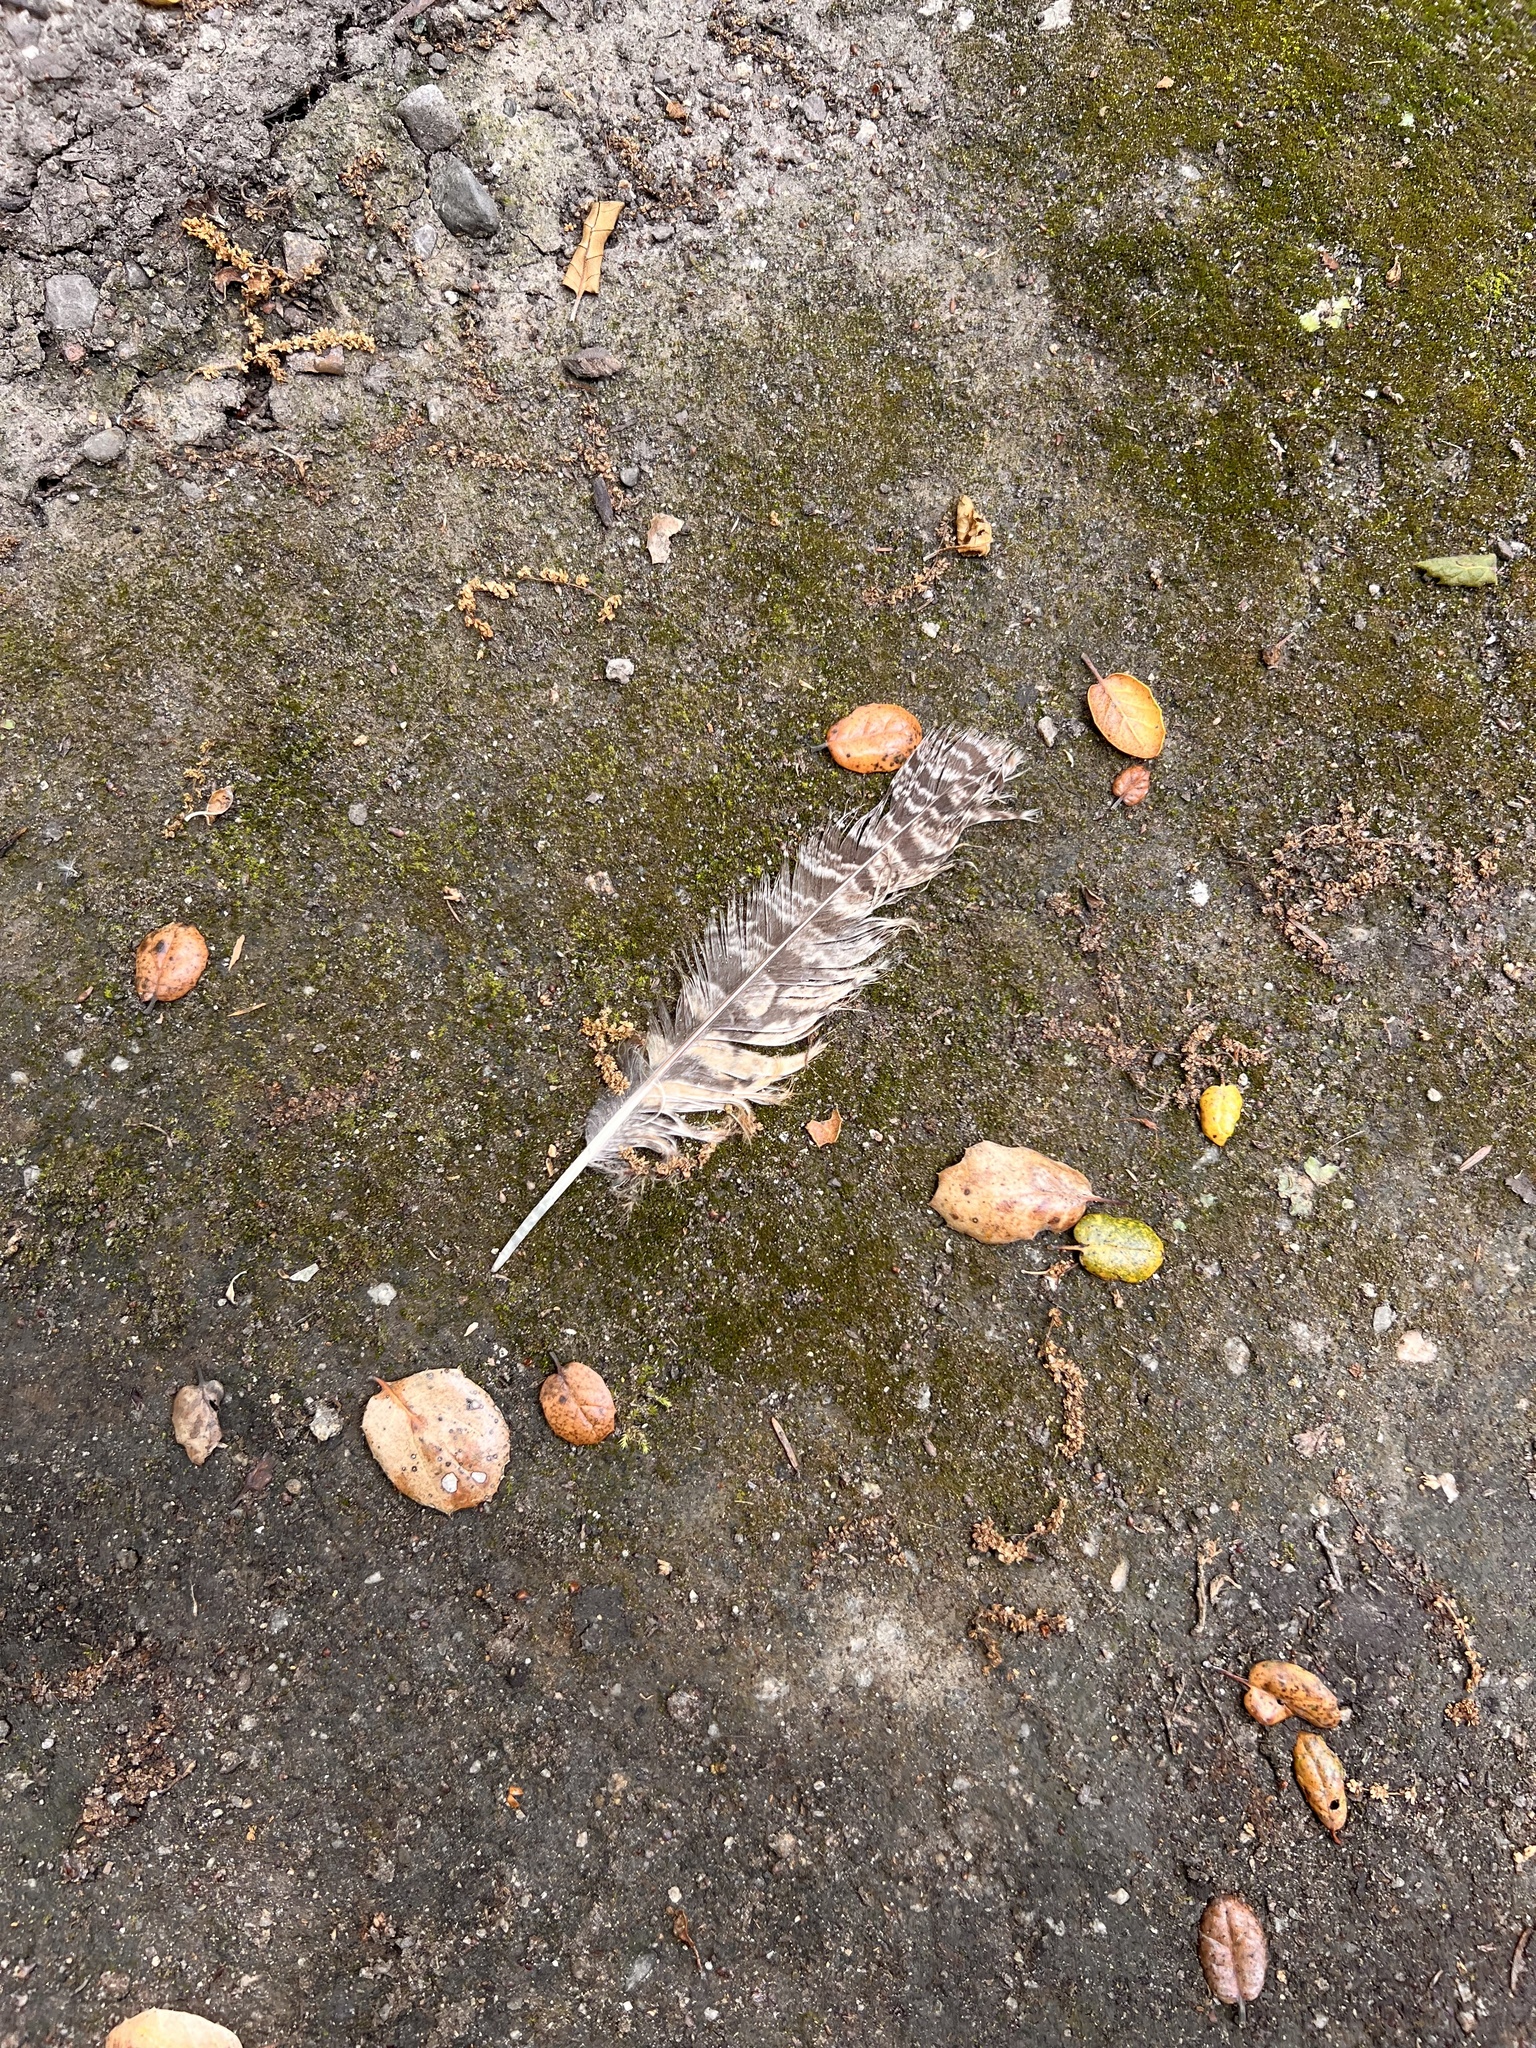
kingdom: Animalia
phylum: Chordata
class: Aves
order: Strigiformes
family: Strigidae
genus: Bubo
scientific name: Bubo virginianus
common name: Great horned owl
